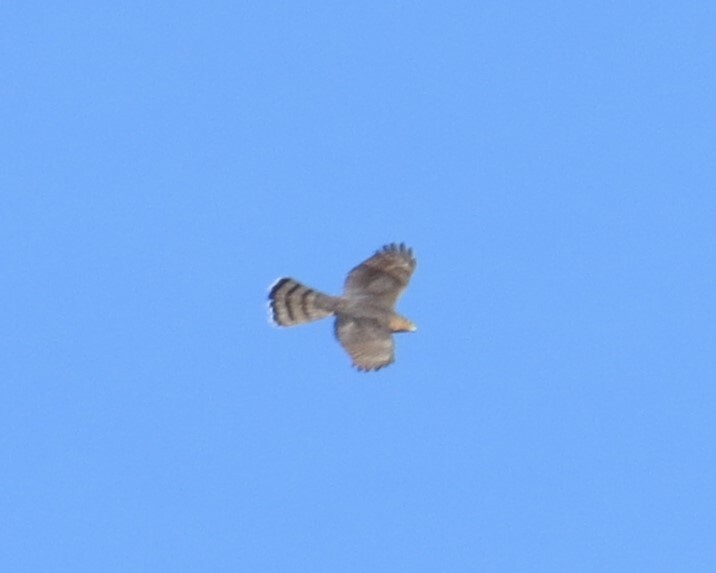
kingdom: Animalia
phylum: Chordata
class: Aves
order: Accipitriformes
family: Accipitridae
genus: Accipiter
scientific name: Accipiter cooperii
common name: Cooper's hawk
